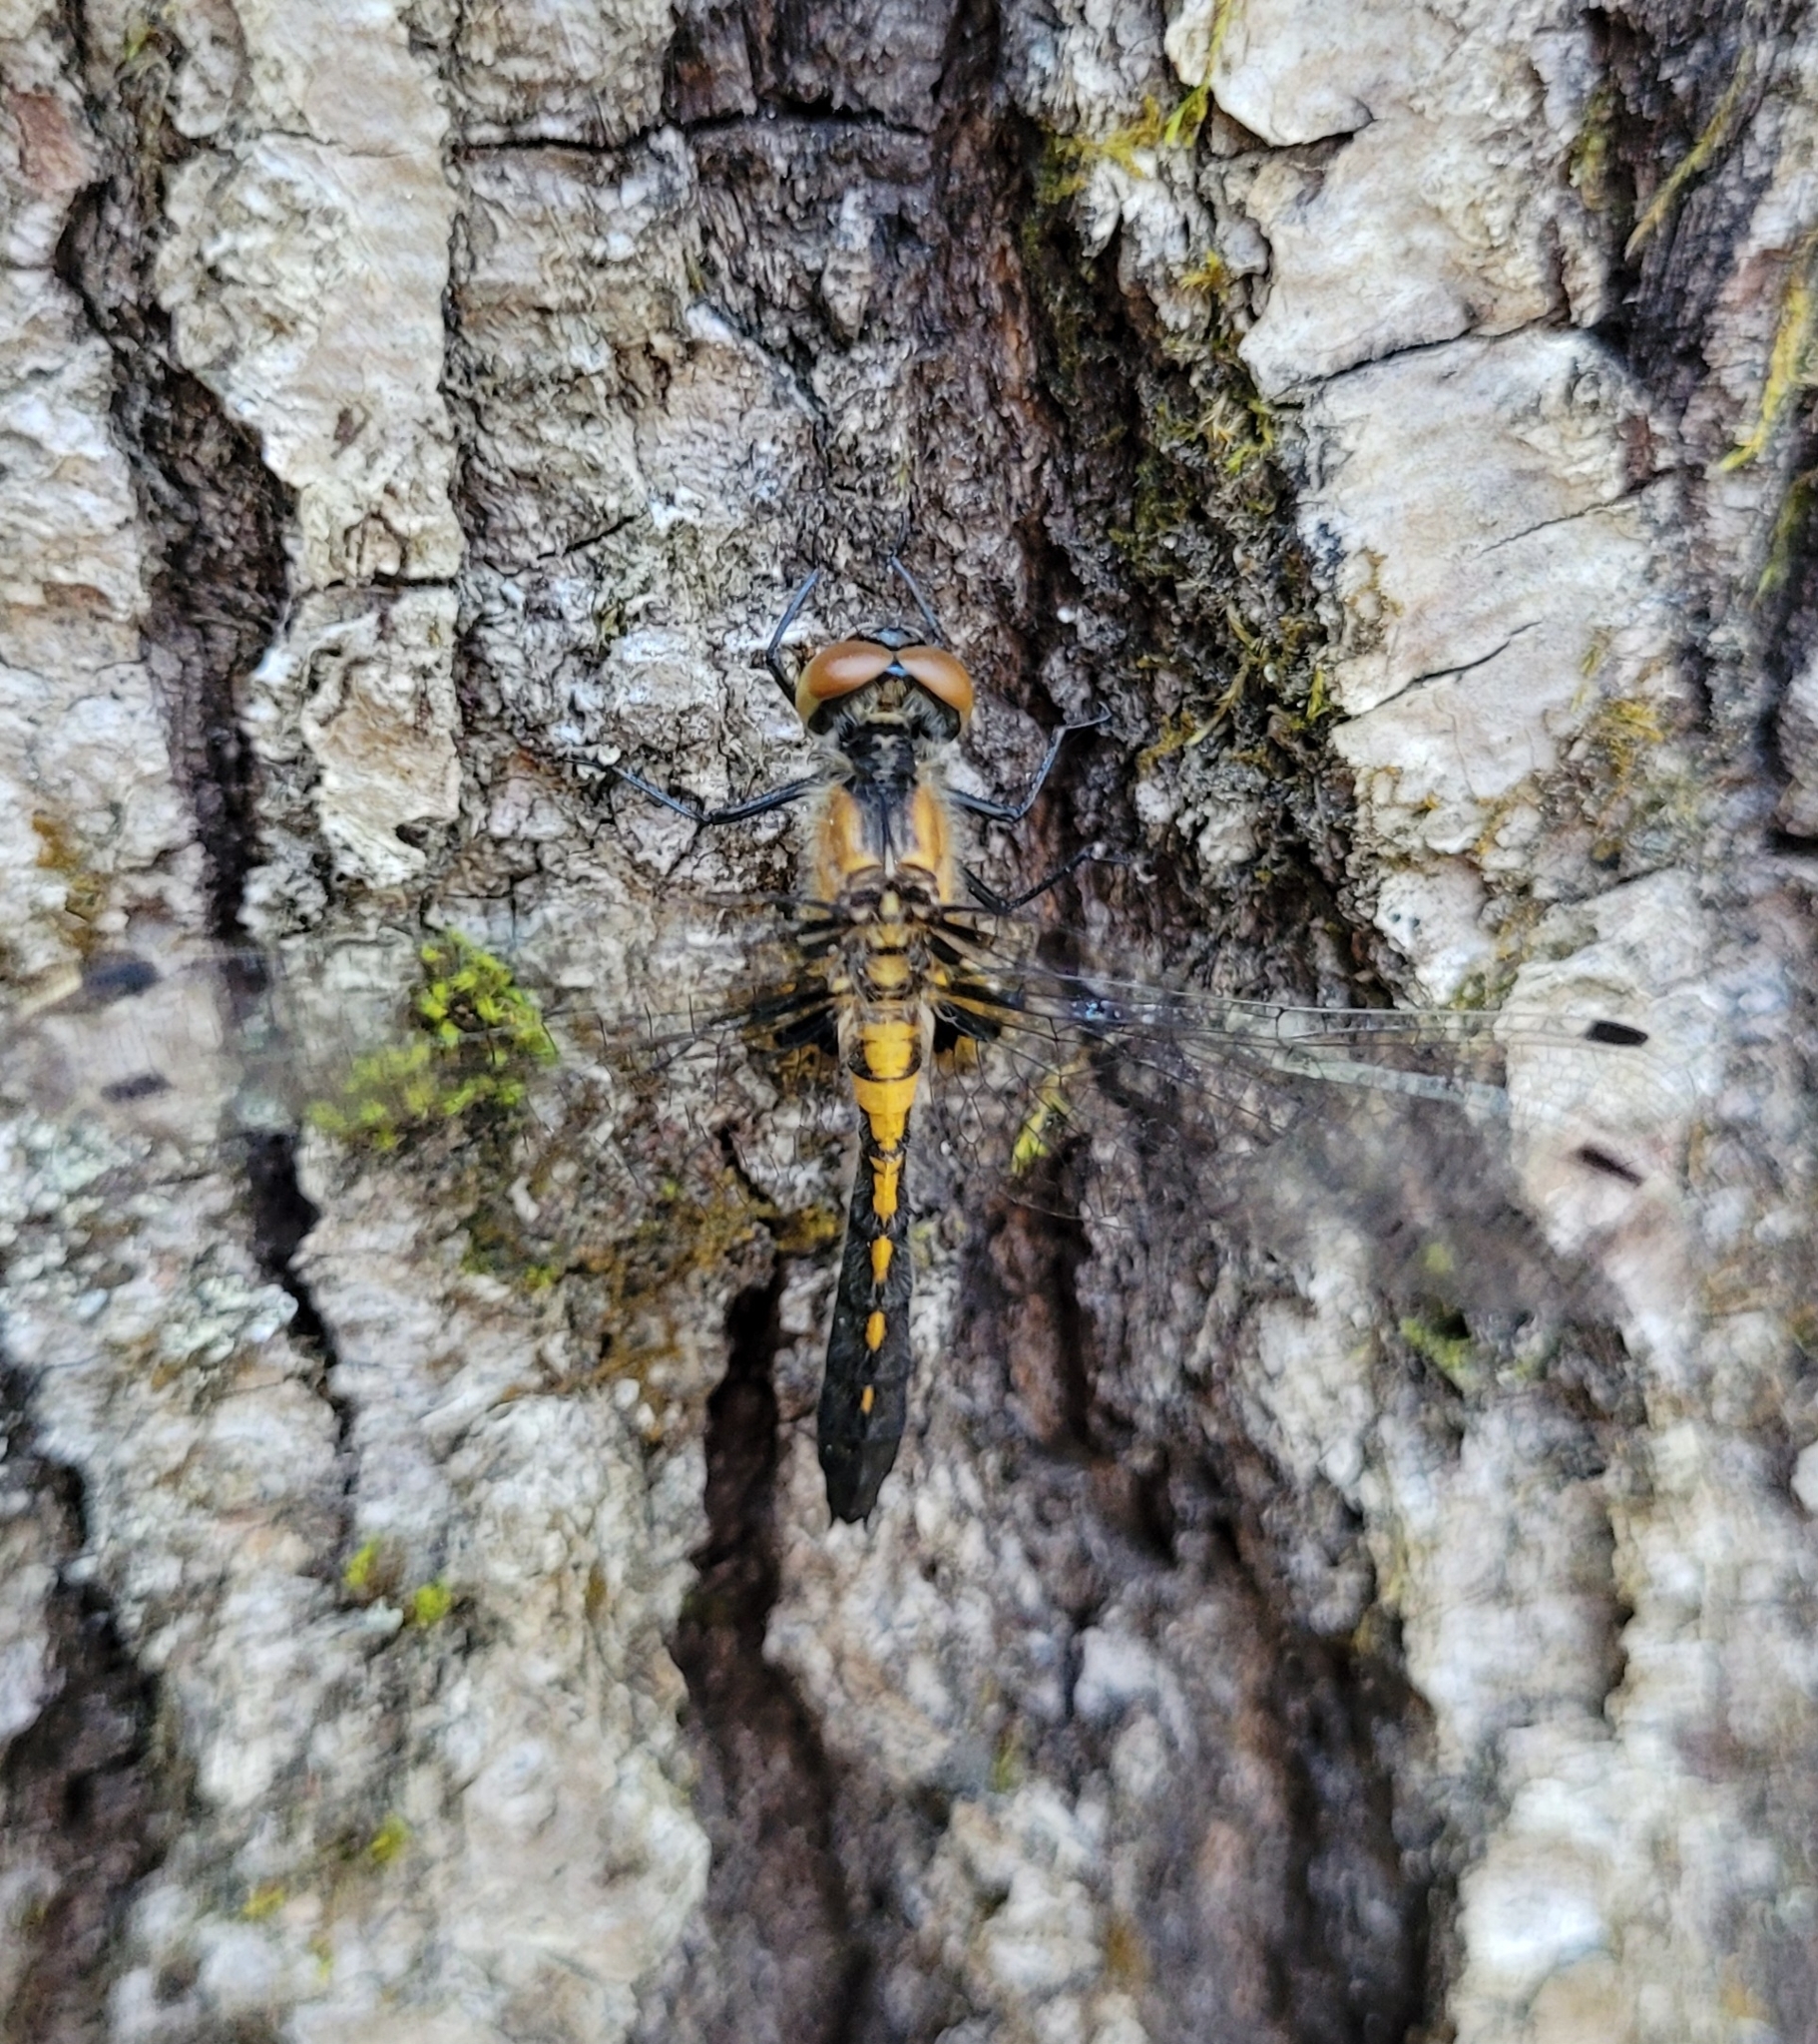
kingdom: Animalia
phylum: Arthropoda
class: Insecta
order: Odonata
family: Libellulidae
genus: Leucorrhinia
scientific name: Leucorrhinia frigida
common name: Frosted whiteface
